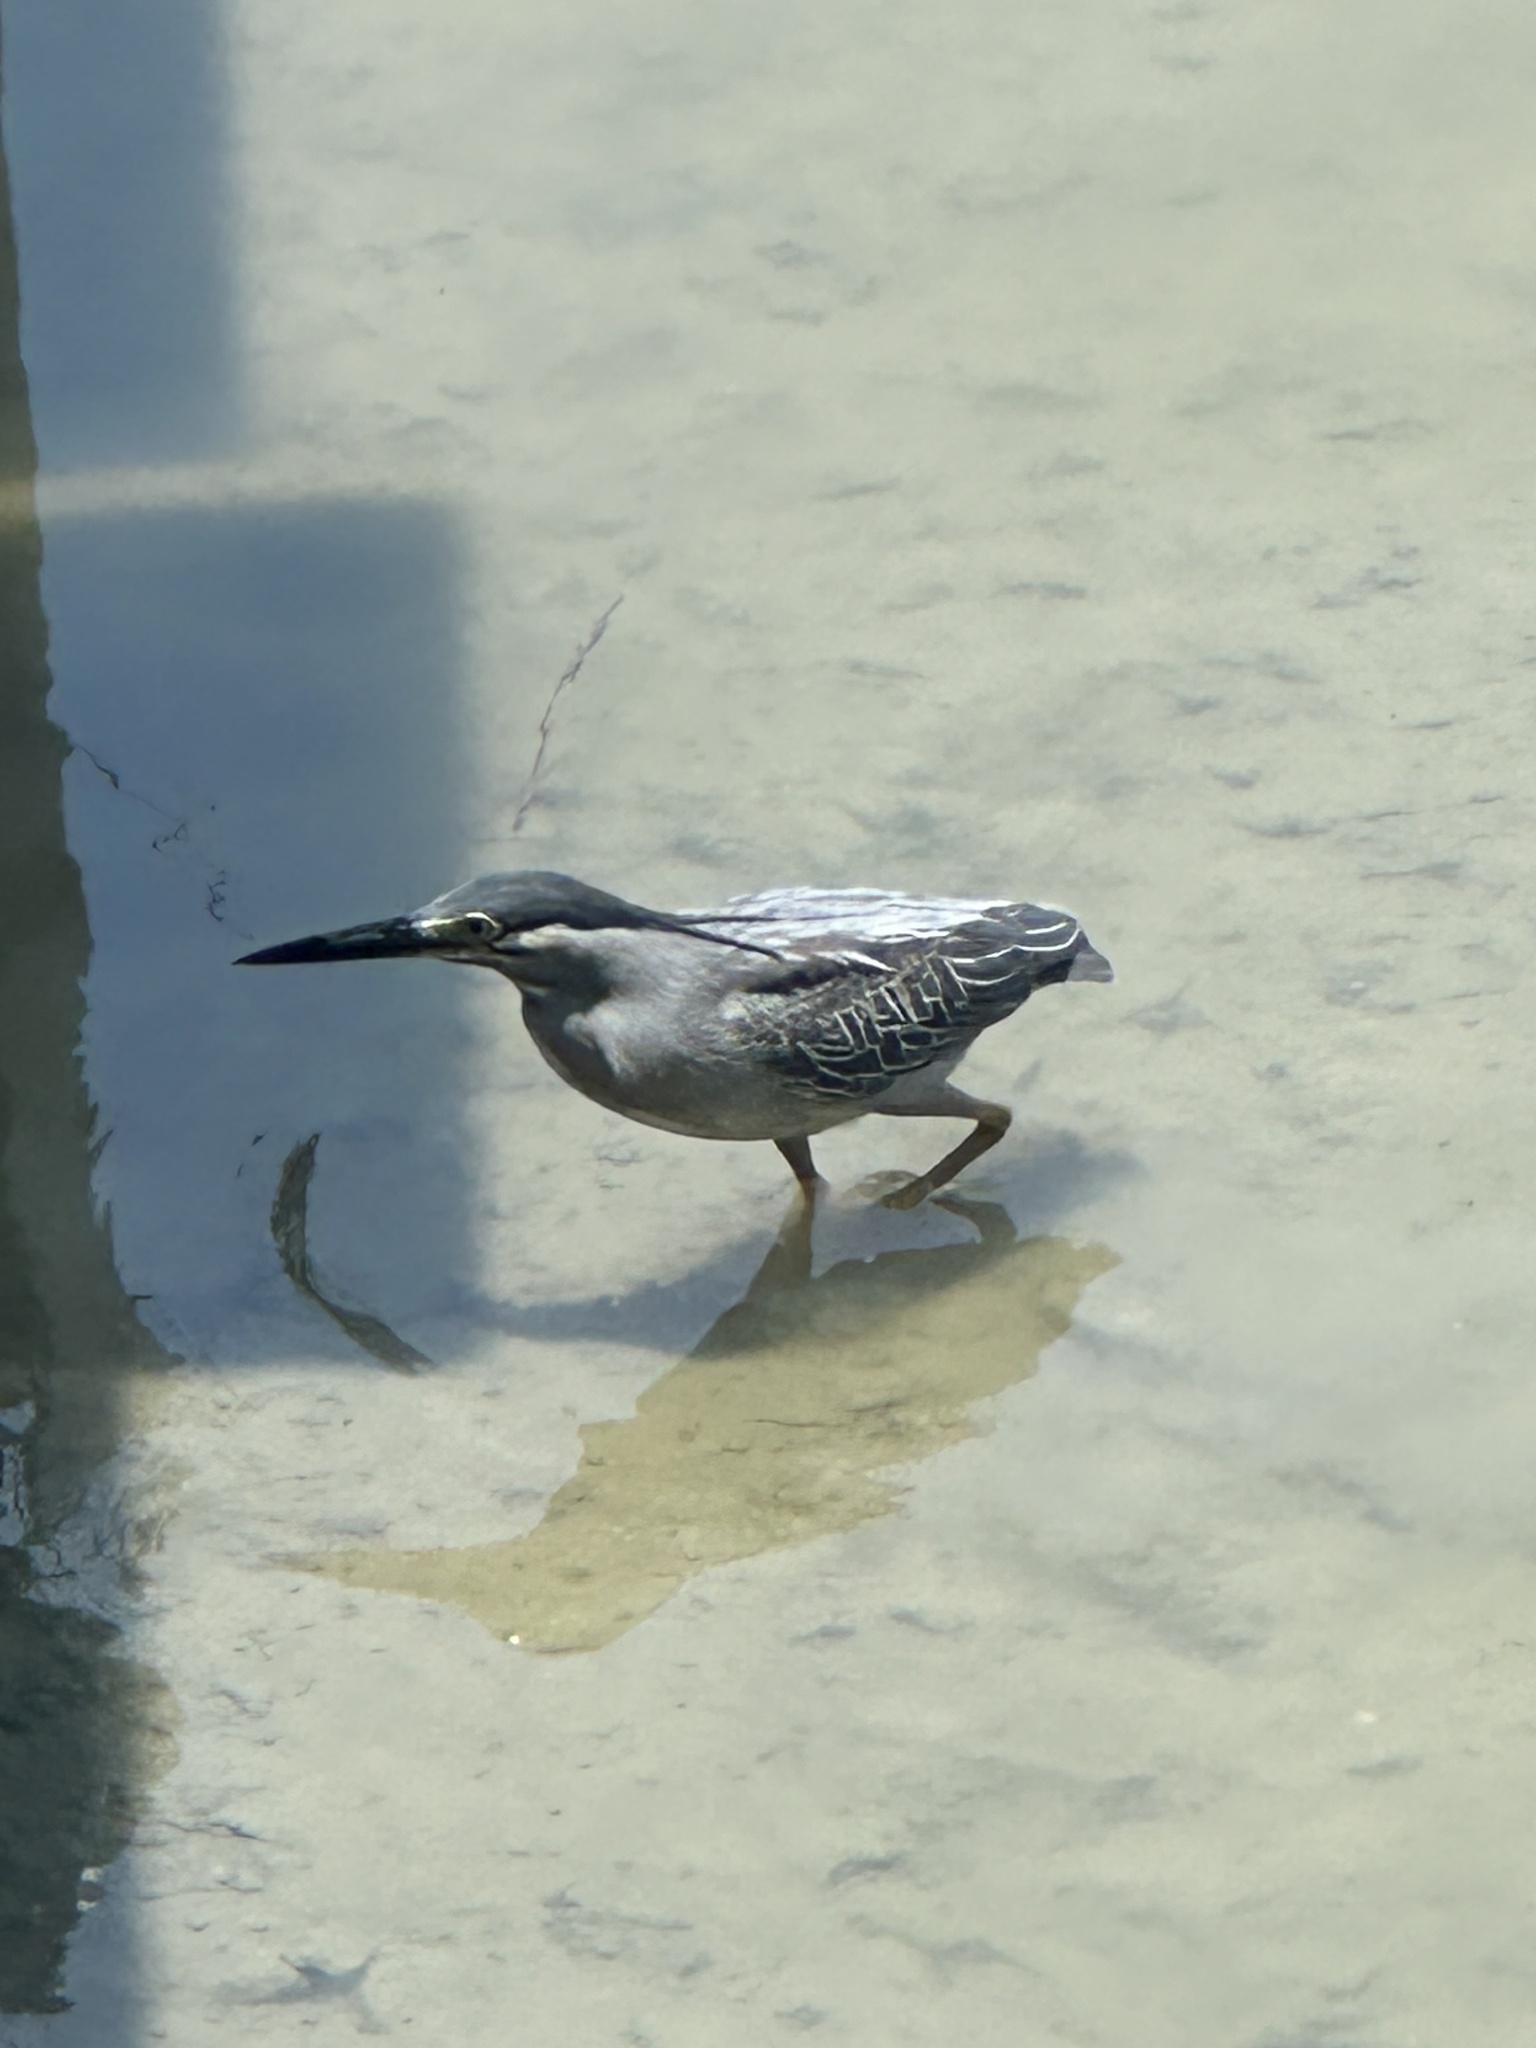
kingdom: Animalia
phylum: Chordata
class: Aves
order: Pelecaniformes
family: Ardeidae
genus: Butorides
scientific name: Butorides striata
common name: Striated heron
